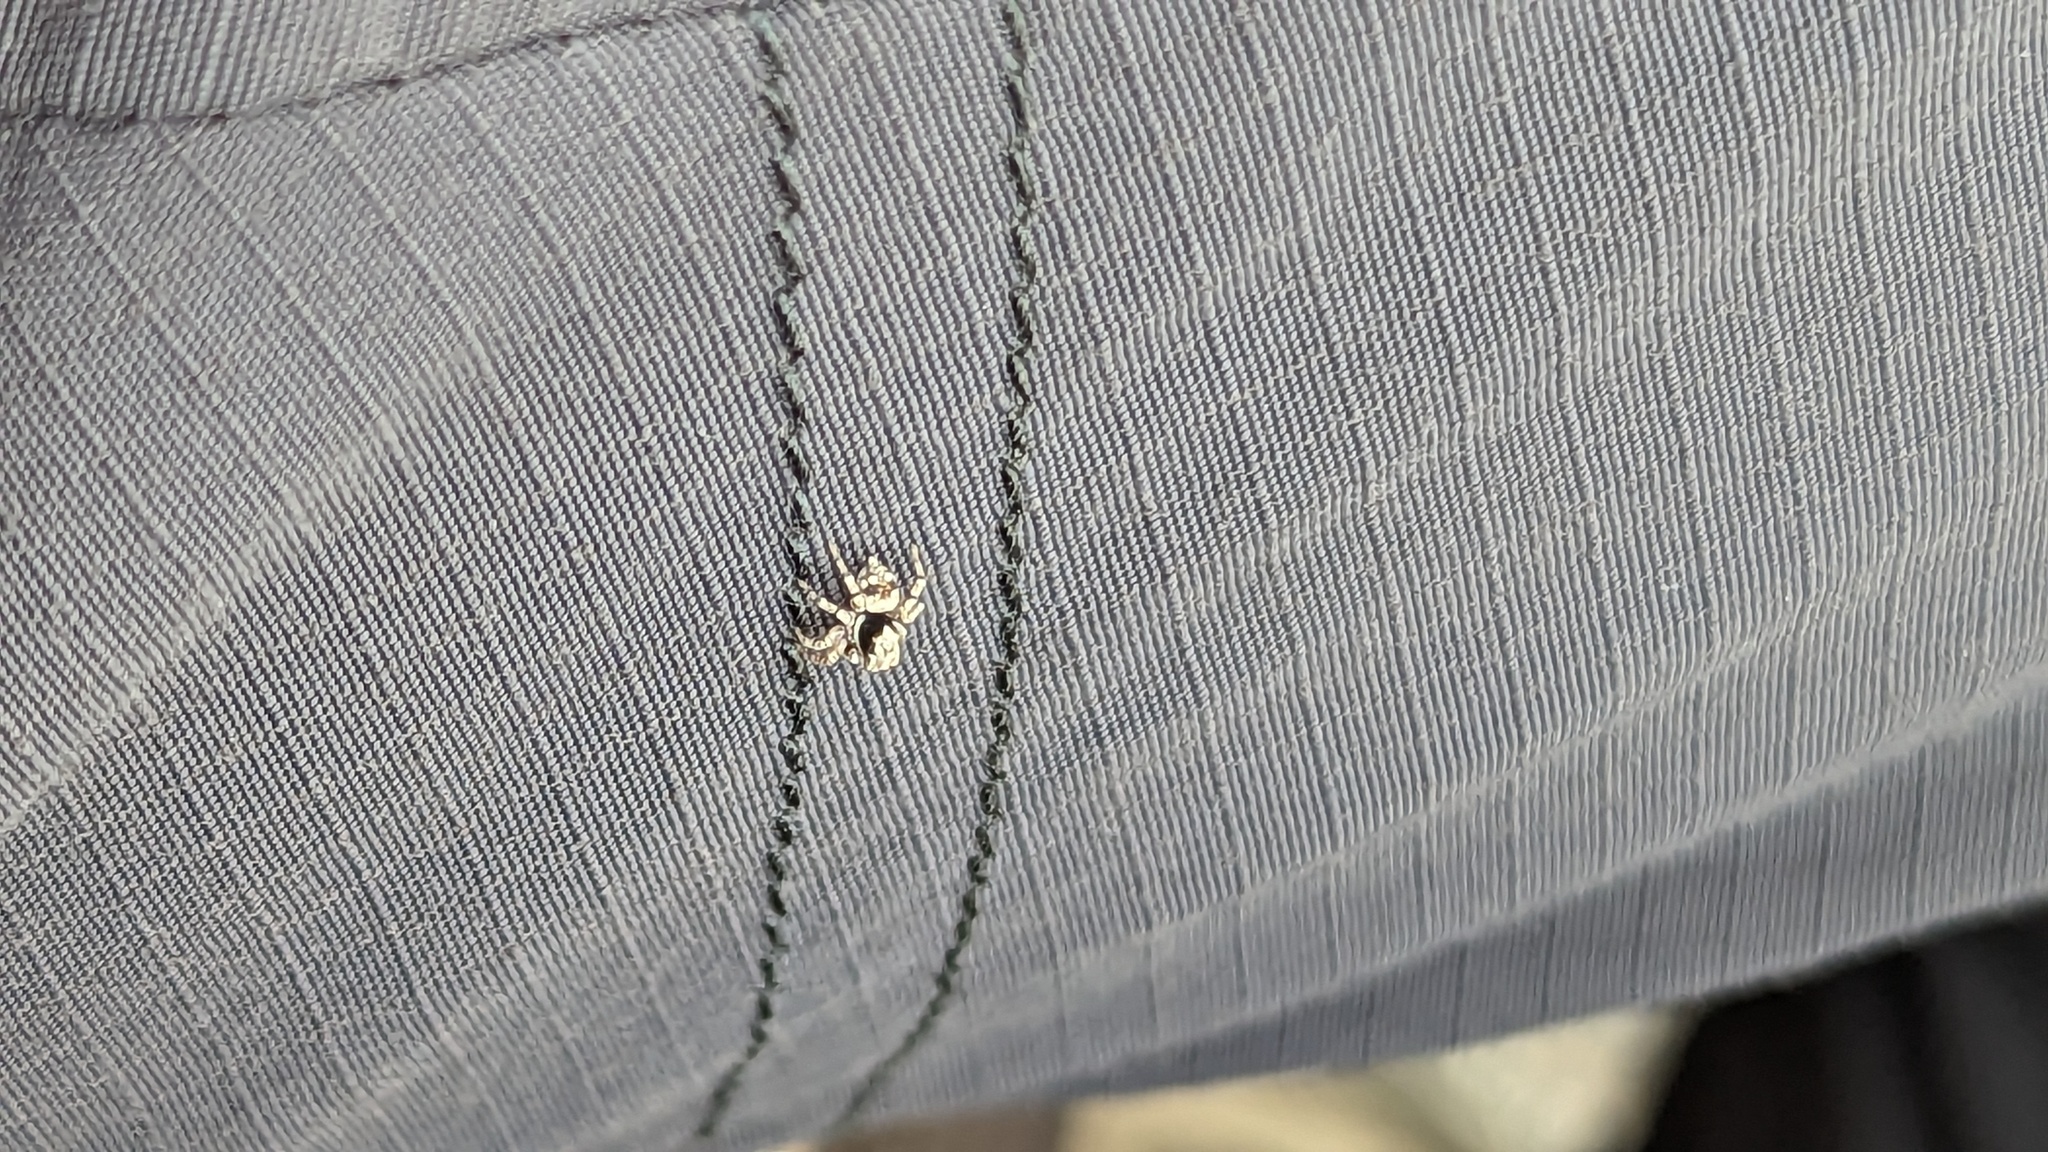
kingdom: Animalia
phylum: Arthropoda
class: Arachnida
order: Araneae
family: Salticidae
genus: Naphrys
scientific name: Naphrys acerba
